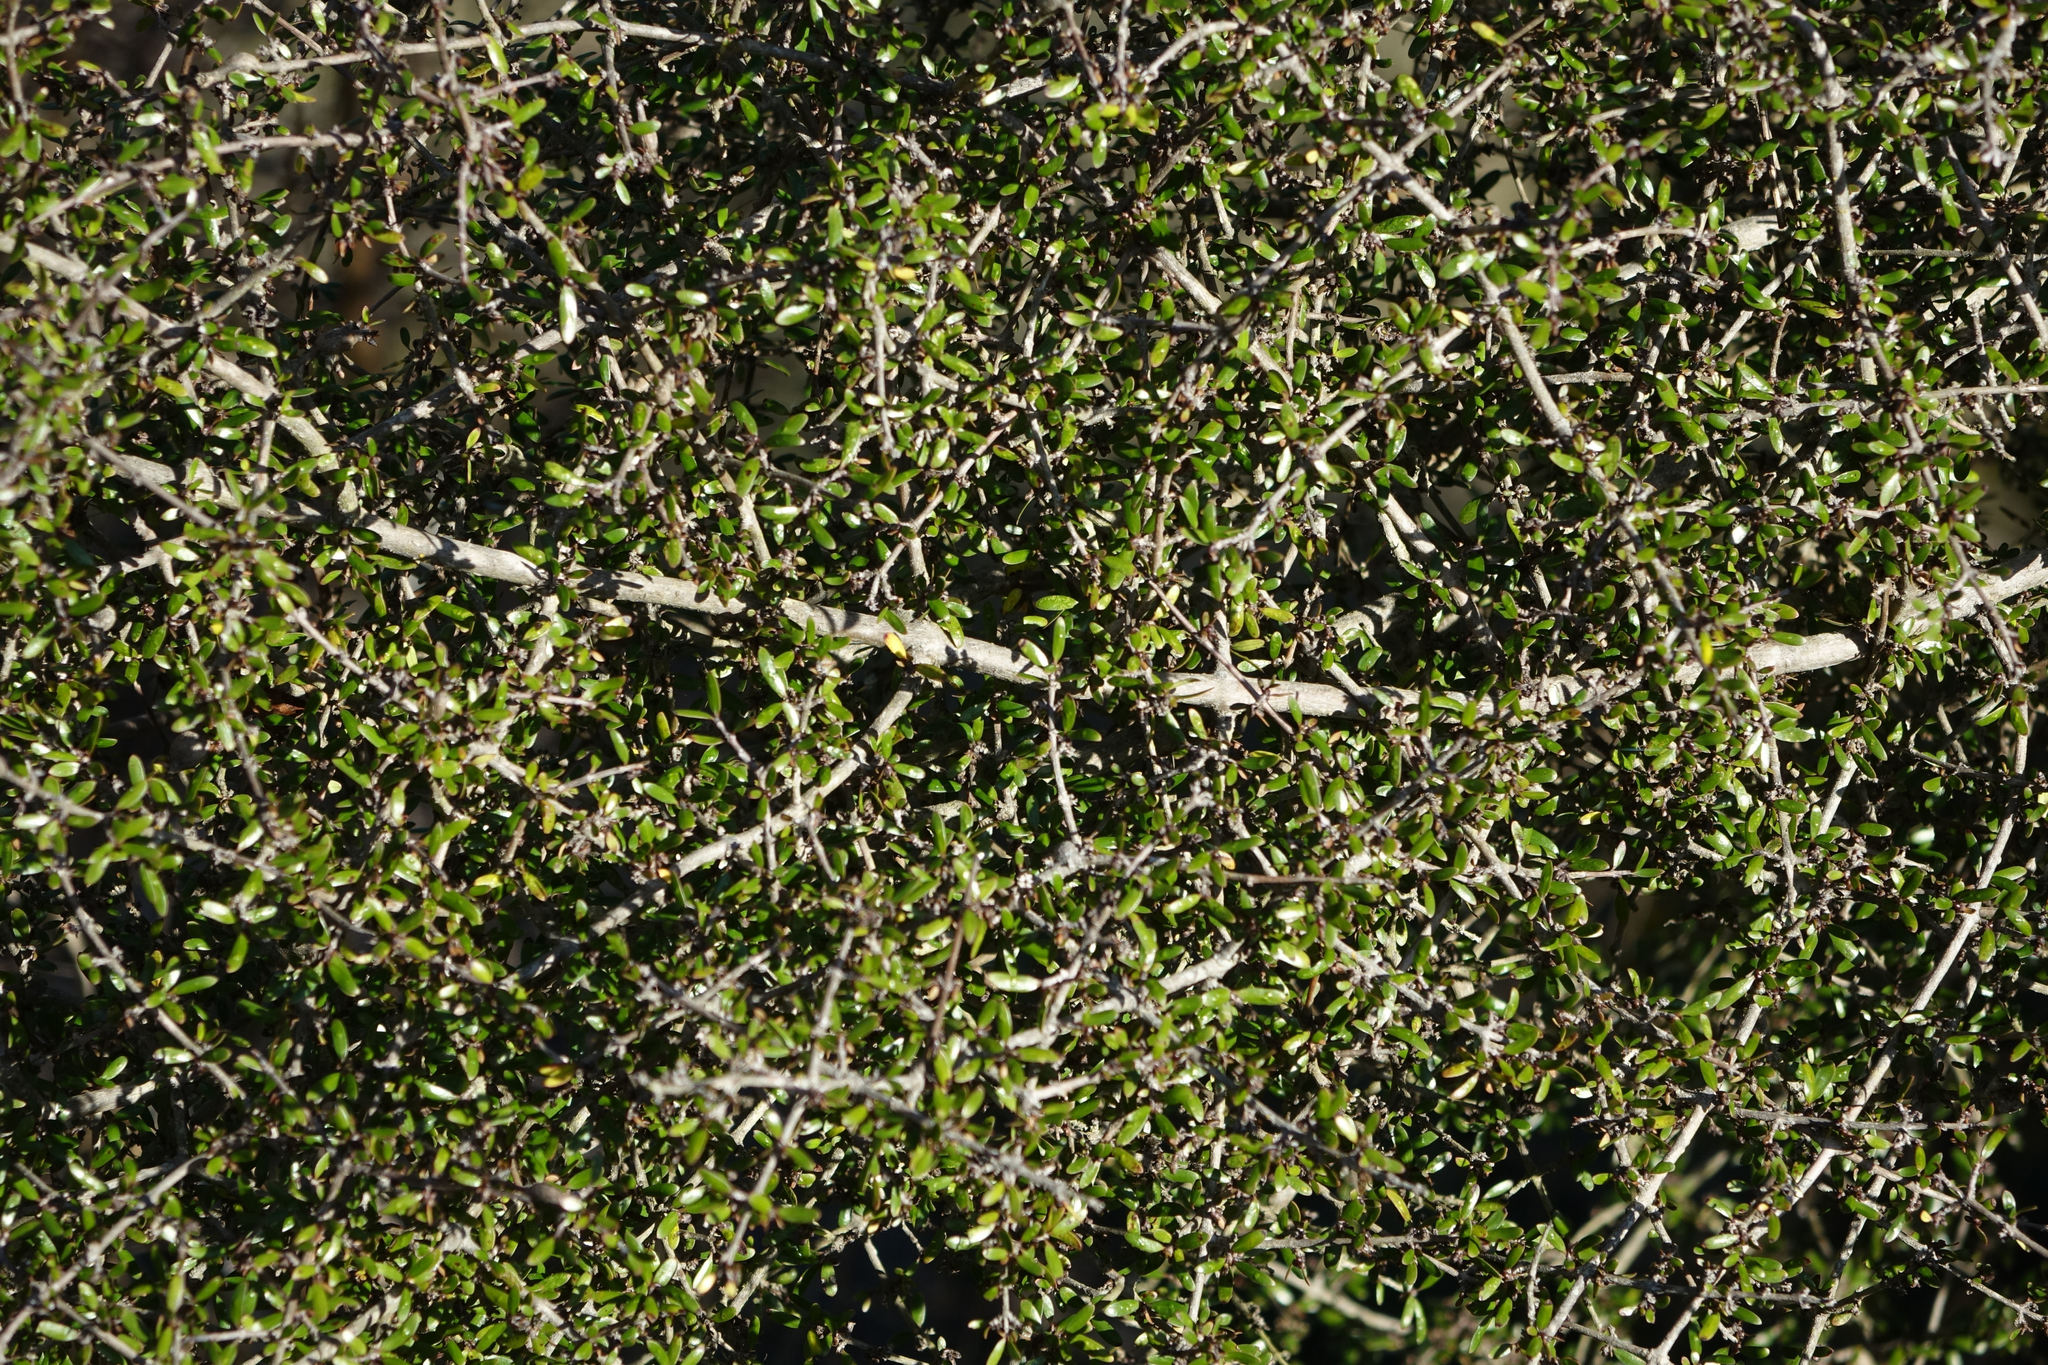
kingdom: Plantae
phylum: Tracheophyta
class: Magnoliopsida
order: Gentianales
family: Rubiaceae
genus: Coprosma
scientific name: Coprosma propinqua
